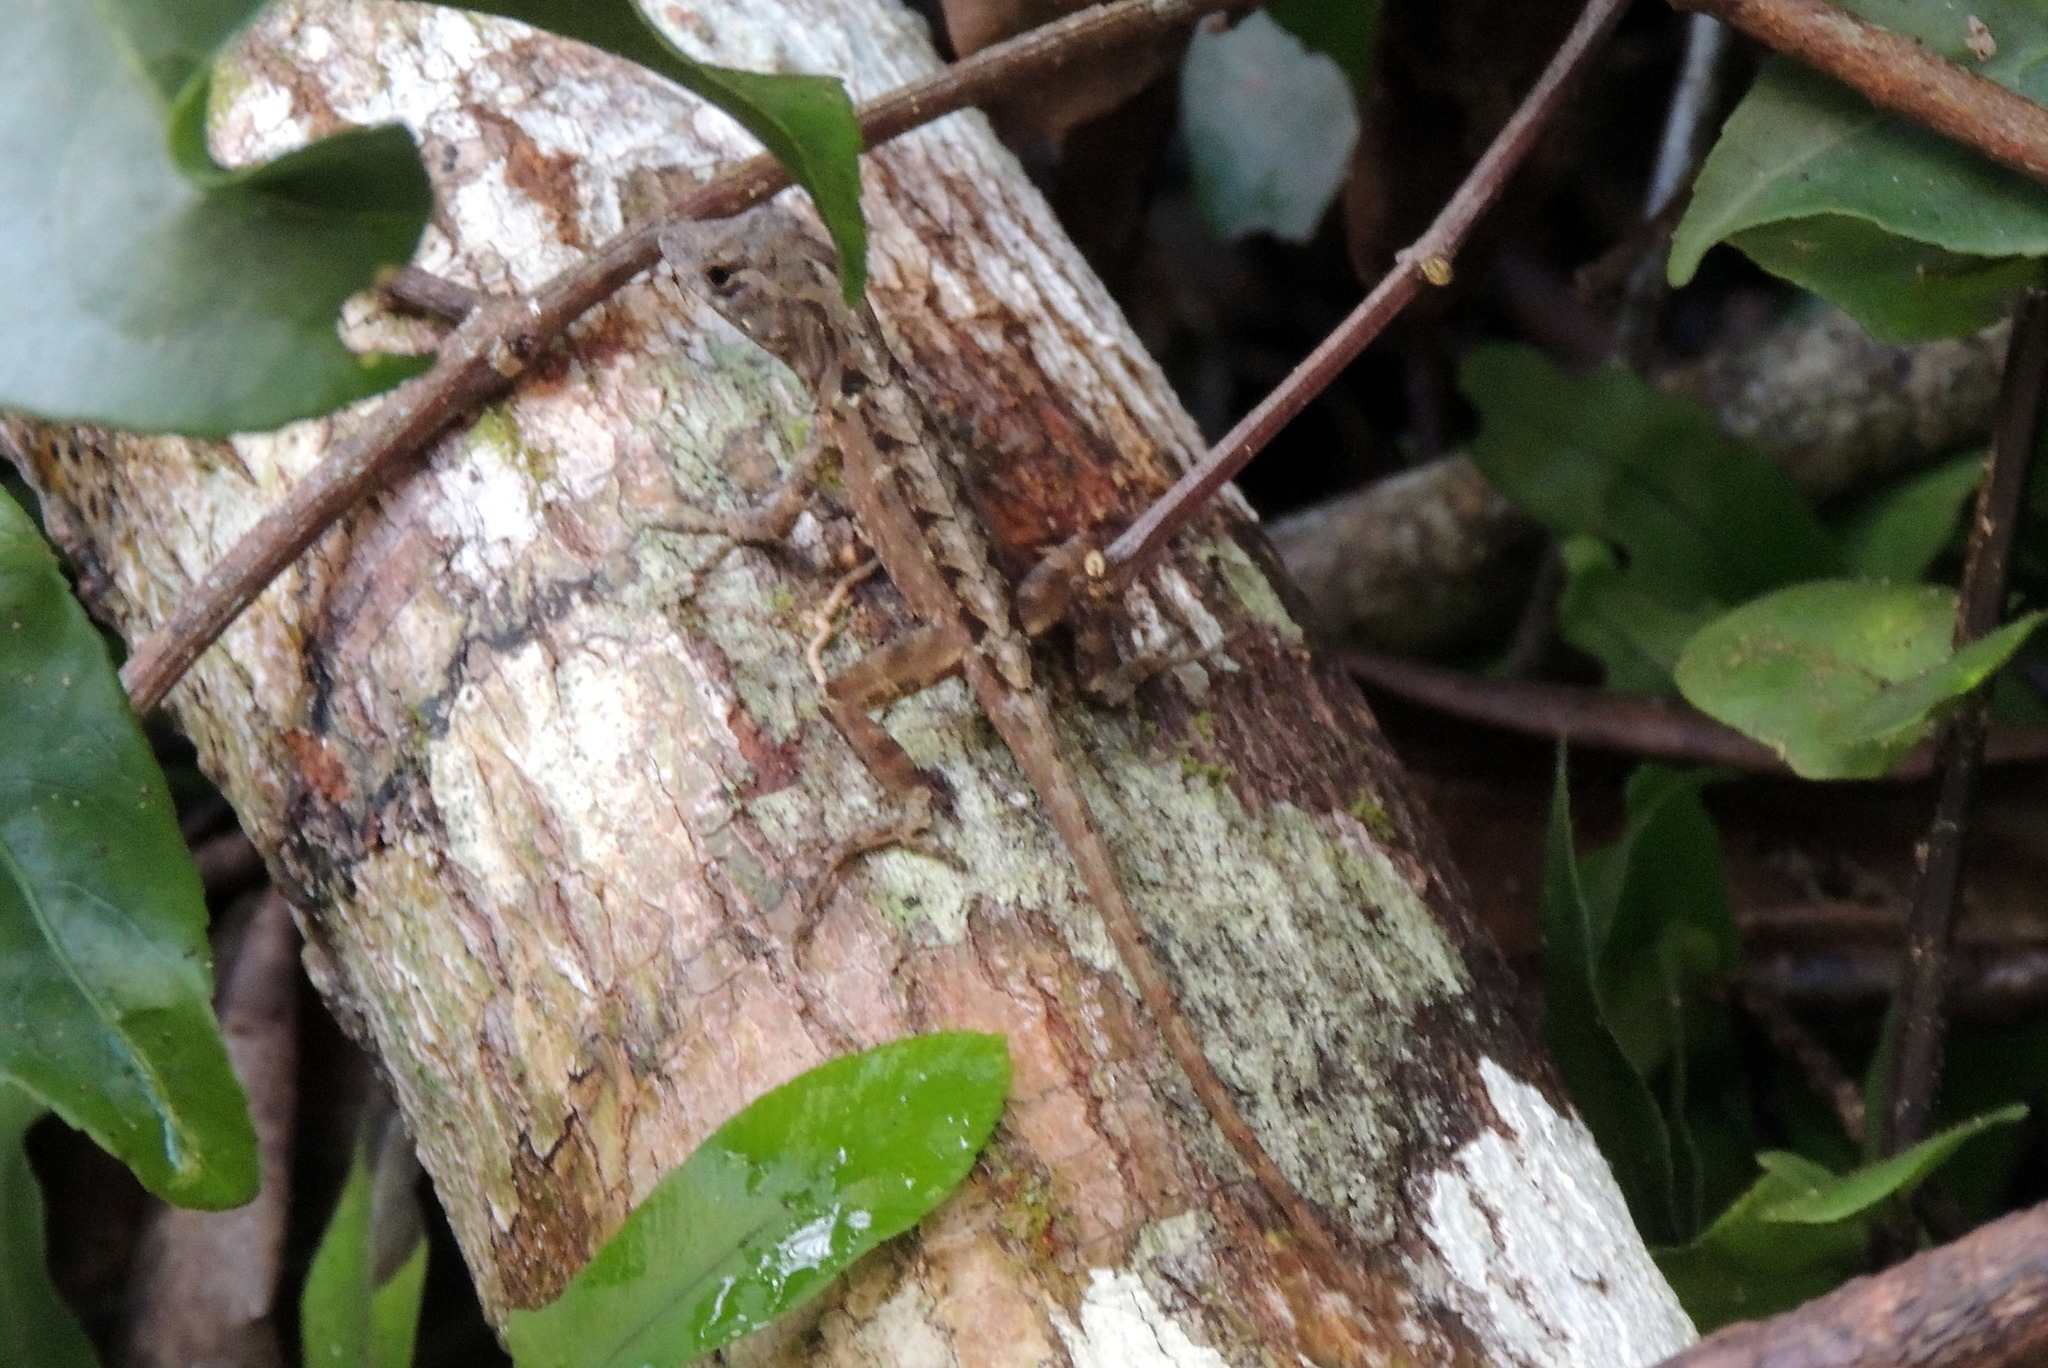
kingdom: Animalia
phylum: Chordata
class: Squamata
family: Dactyloidae
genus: Anolis
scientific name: Anolis sagrei
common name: Brown anole
